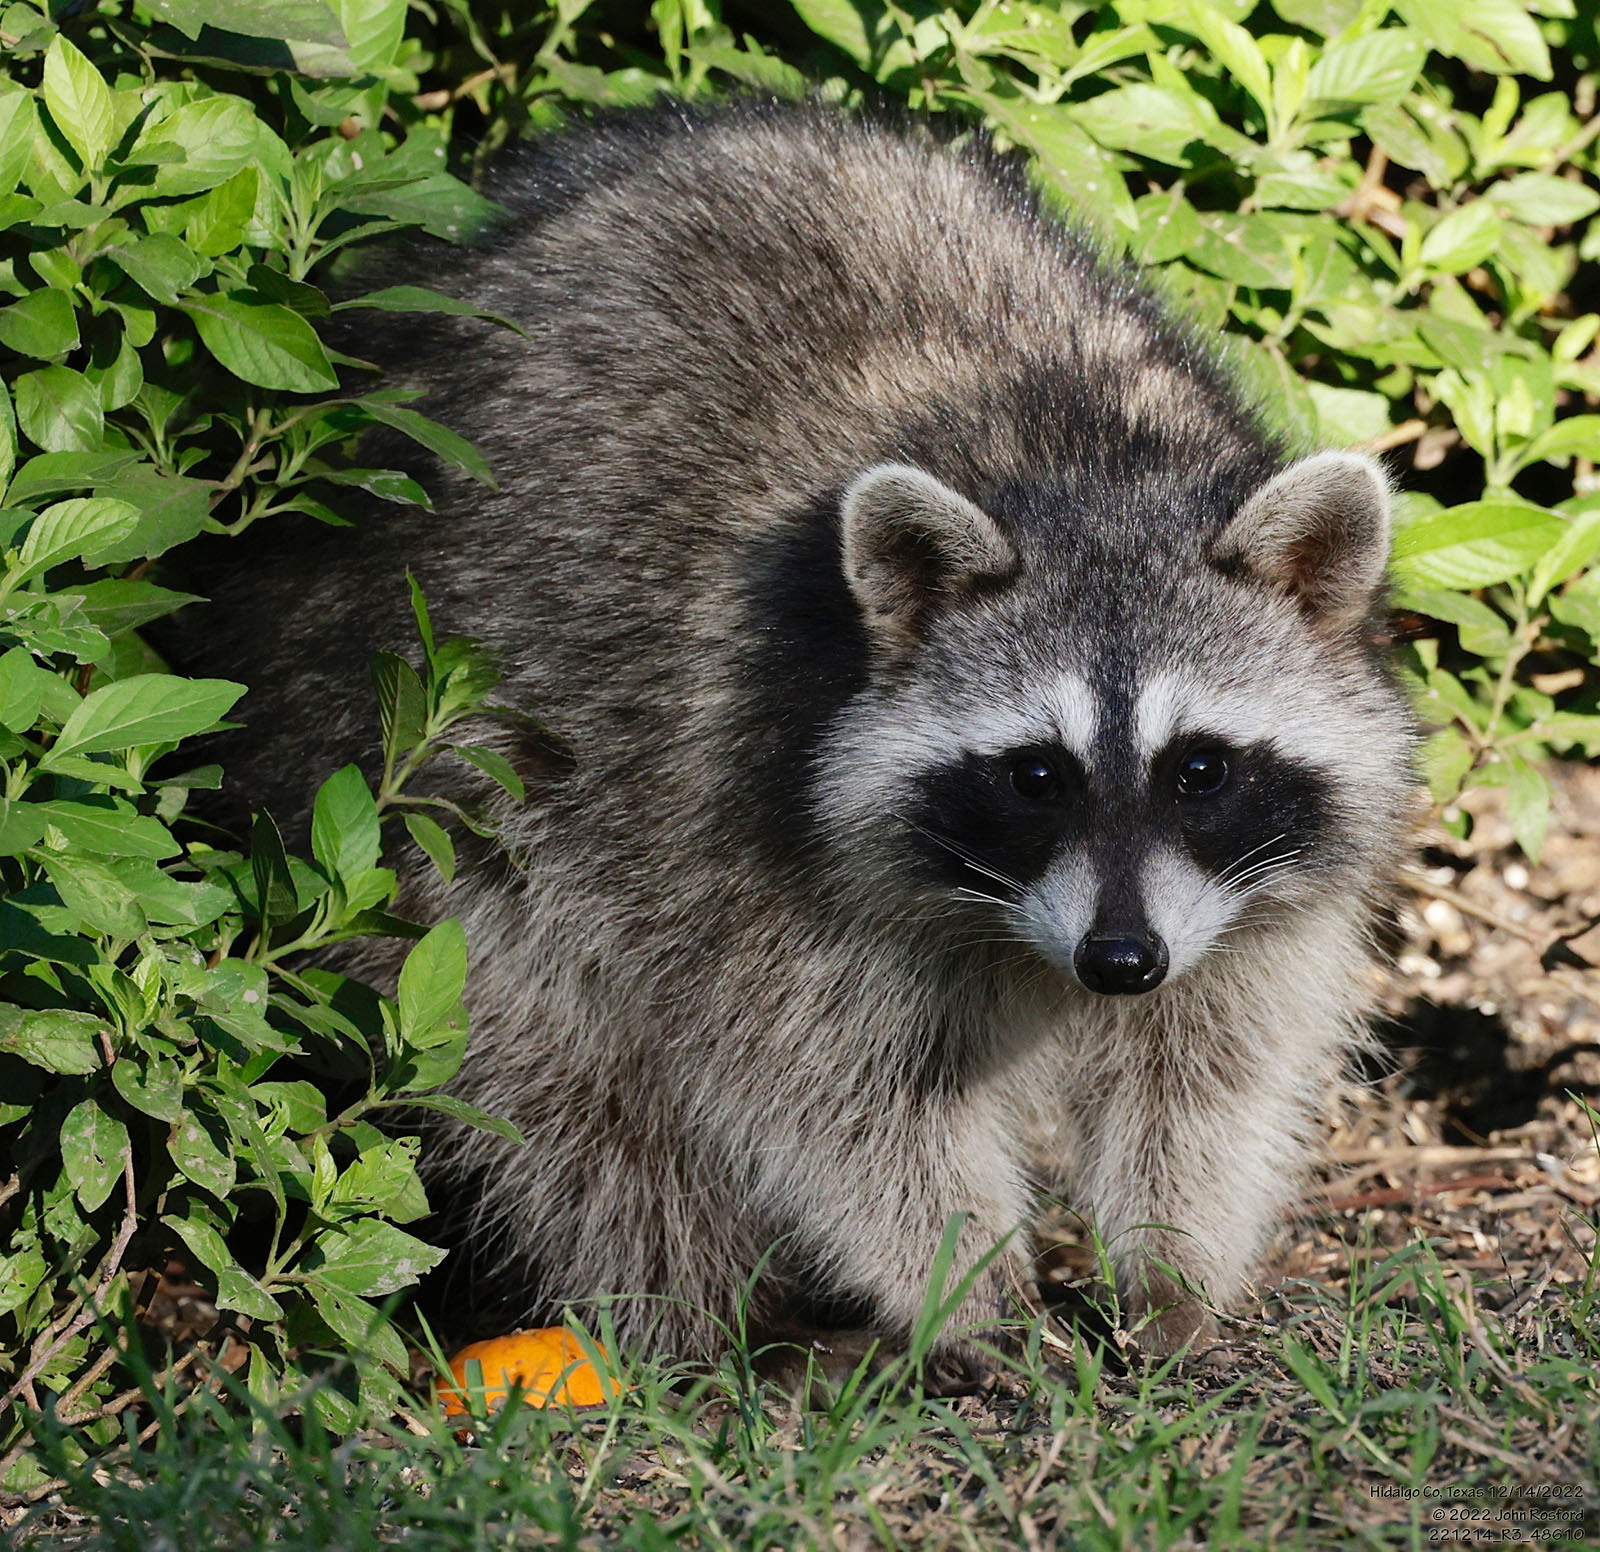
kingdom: Animalia
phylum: Chordata
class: Mammalia
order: Carnivora
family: Procyonidae
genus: Procyon
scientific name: Procyon lotor
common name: Raccoon
